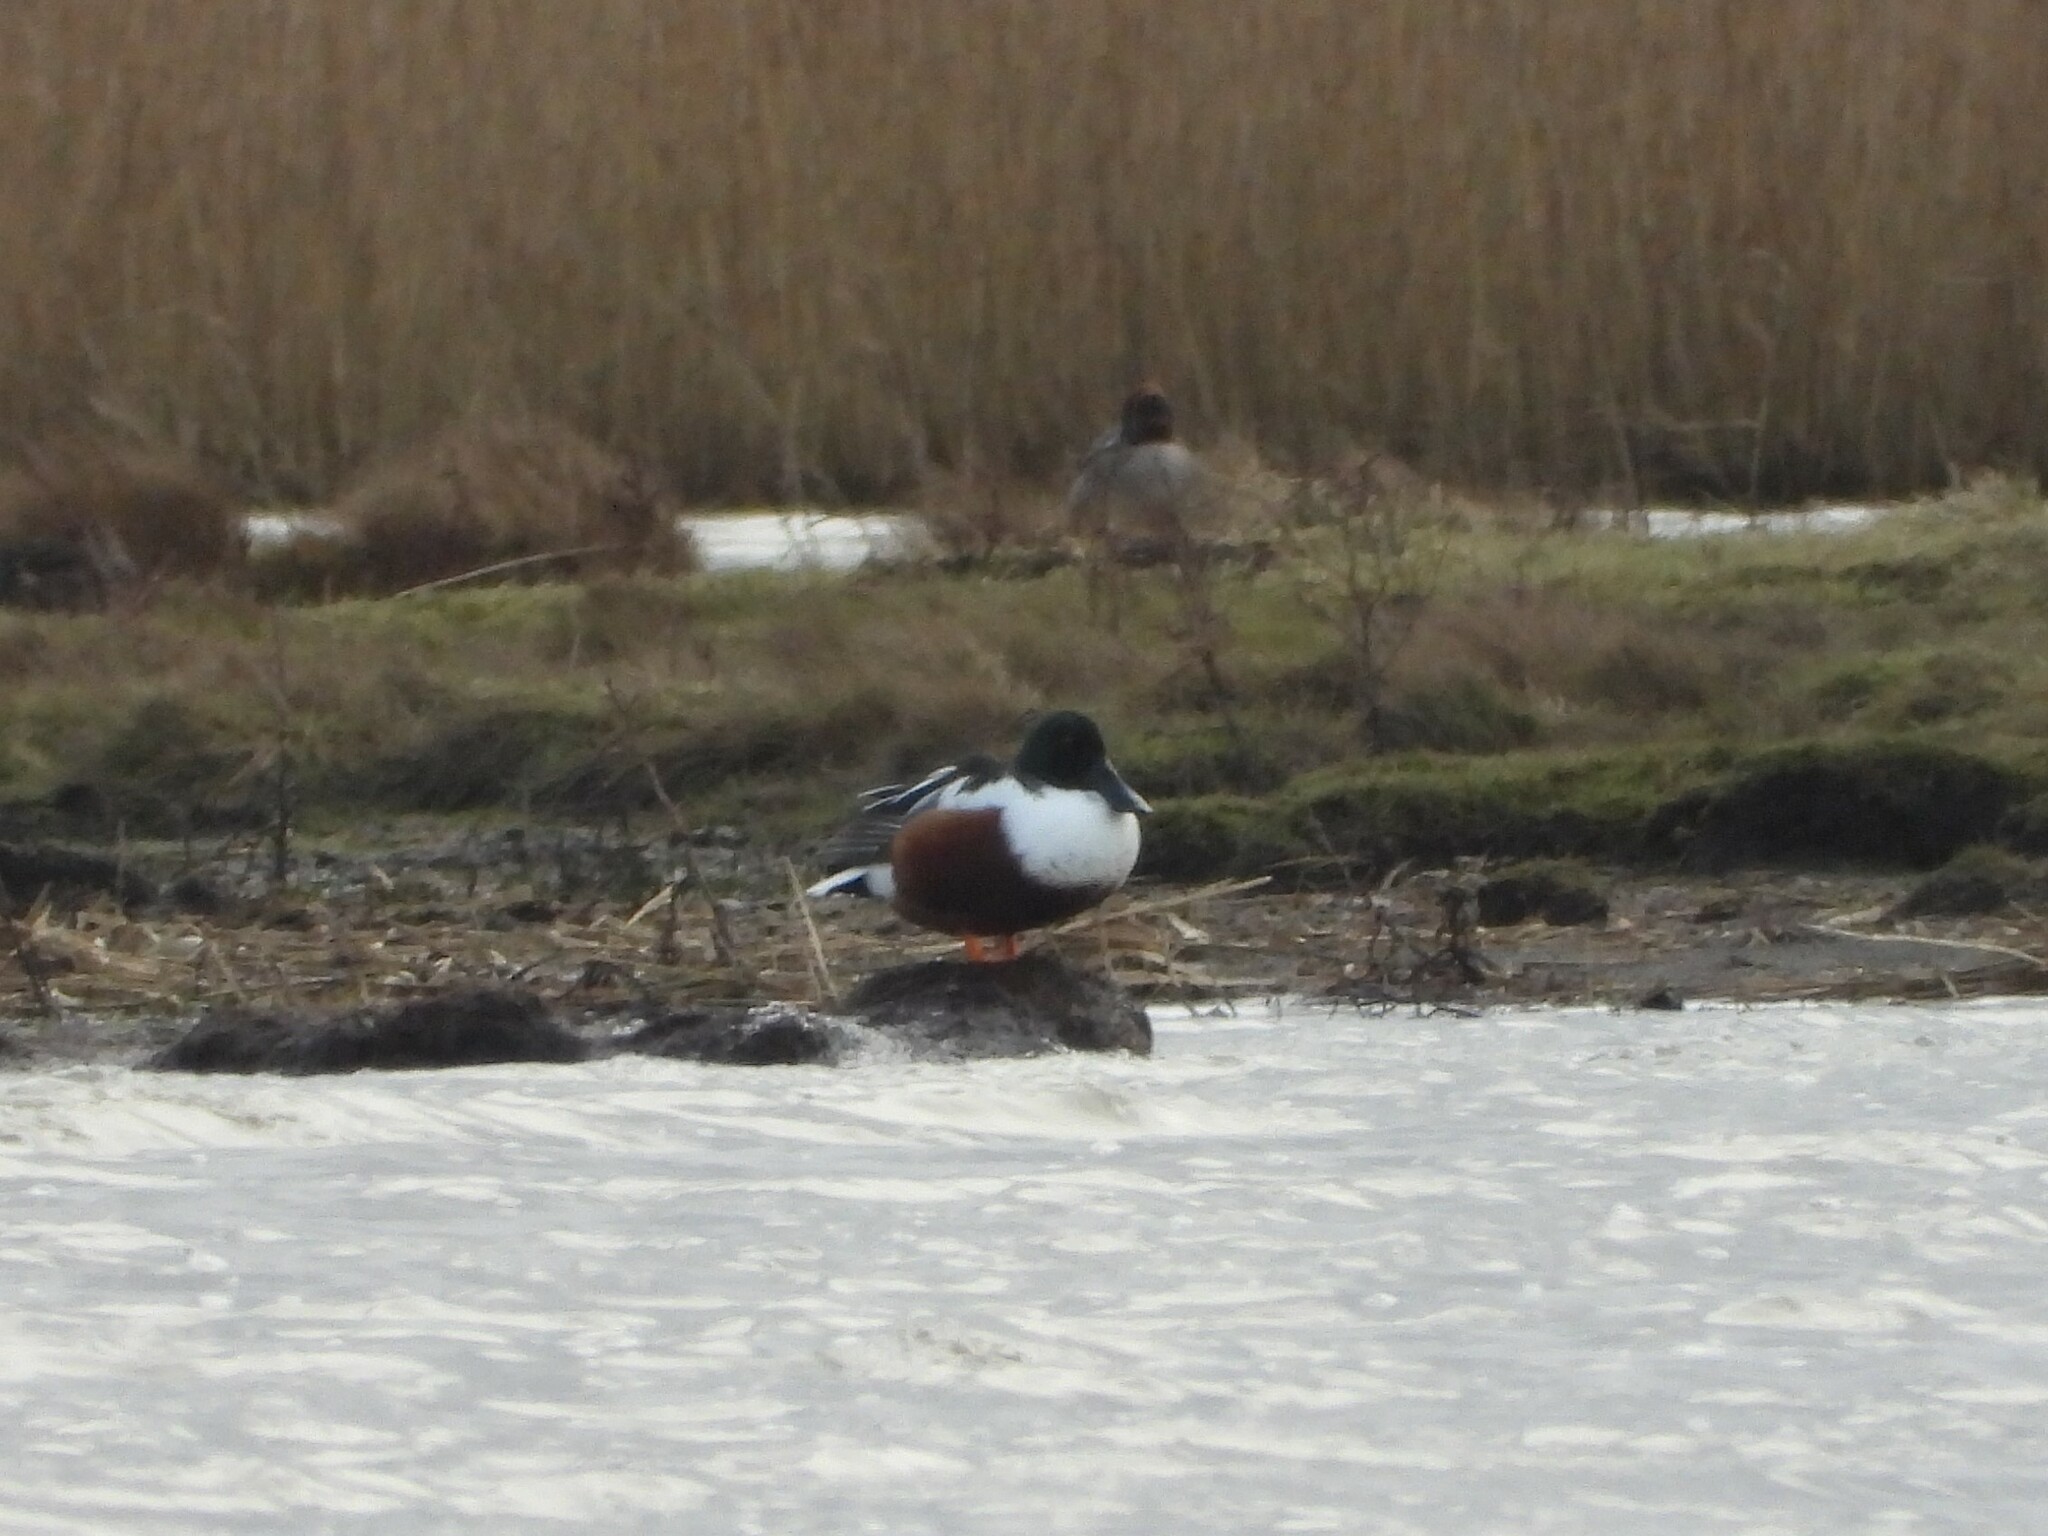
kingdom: Animalia
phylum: Chordata
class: Aves
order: Anseriformes
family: Anatidae
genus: Spatula
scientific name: Spatula clypeata
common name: Northern shoveler
